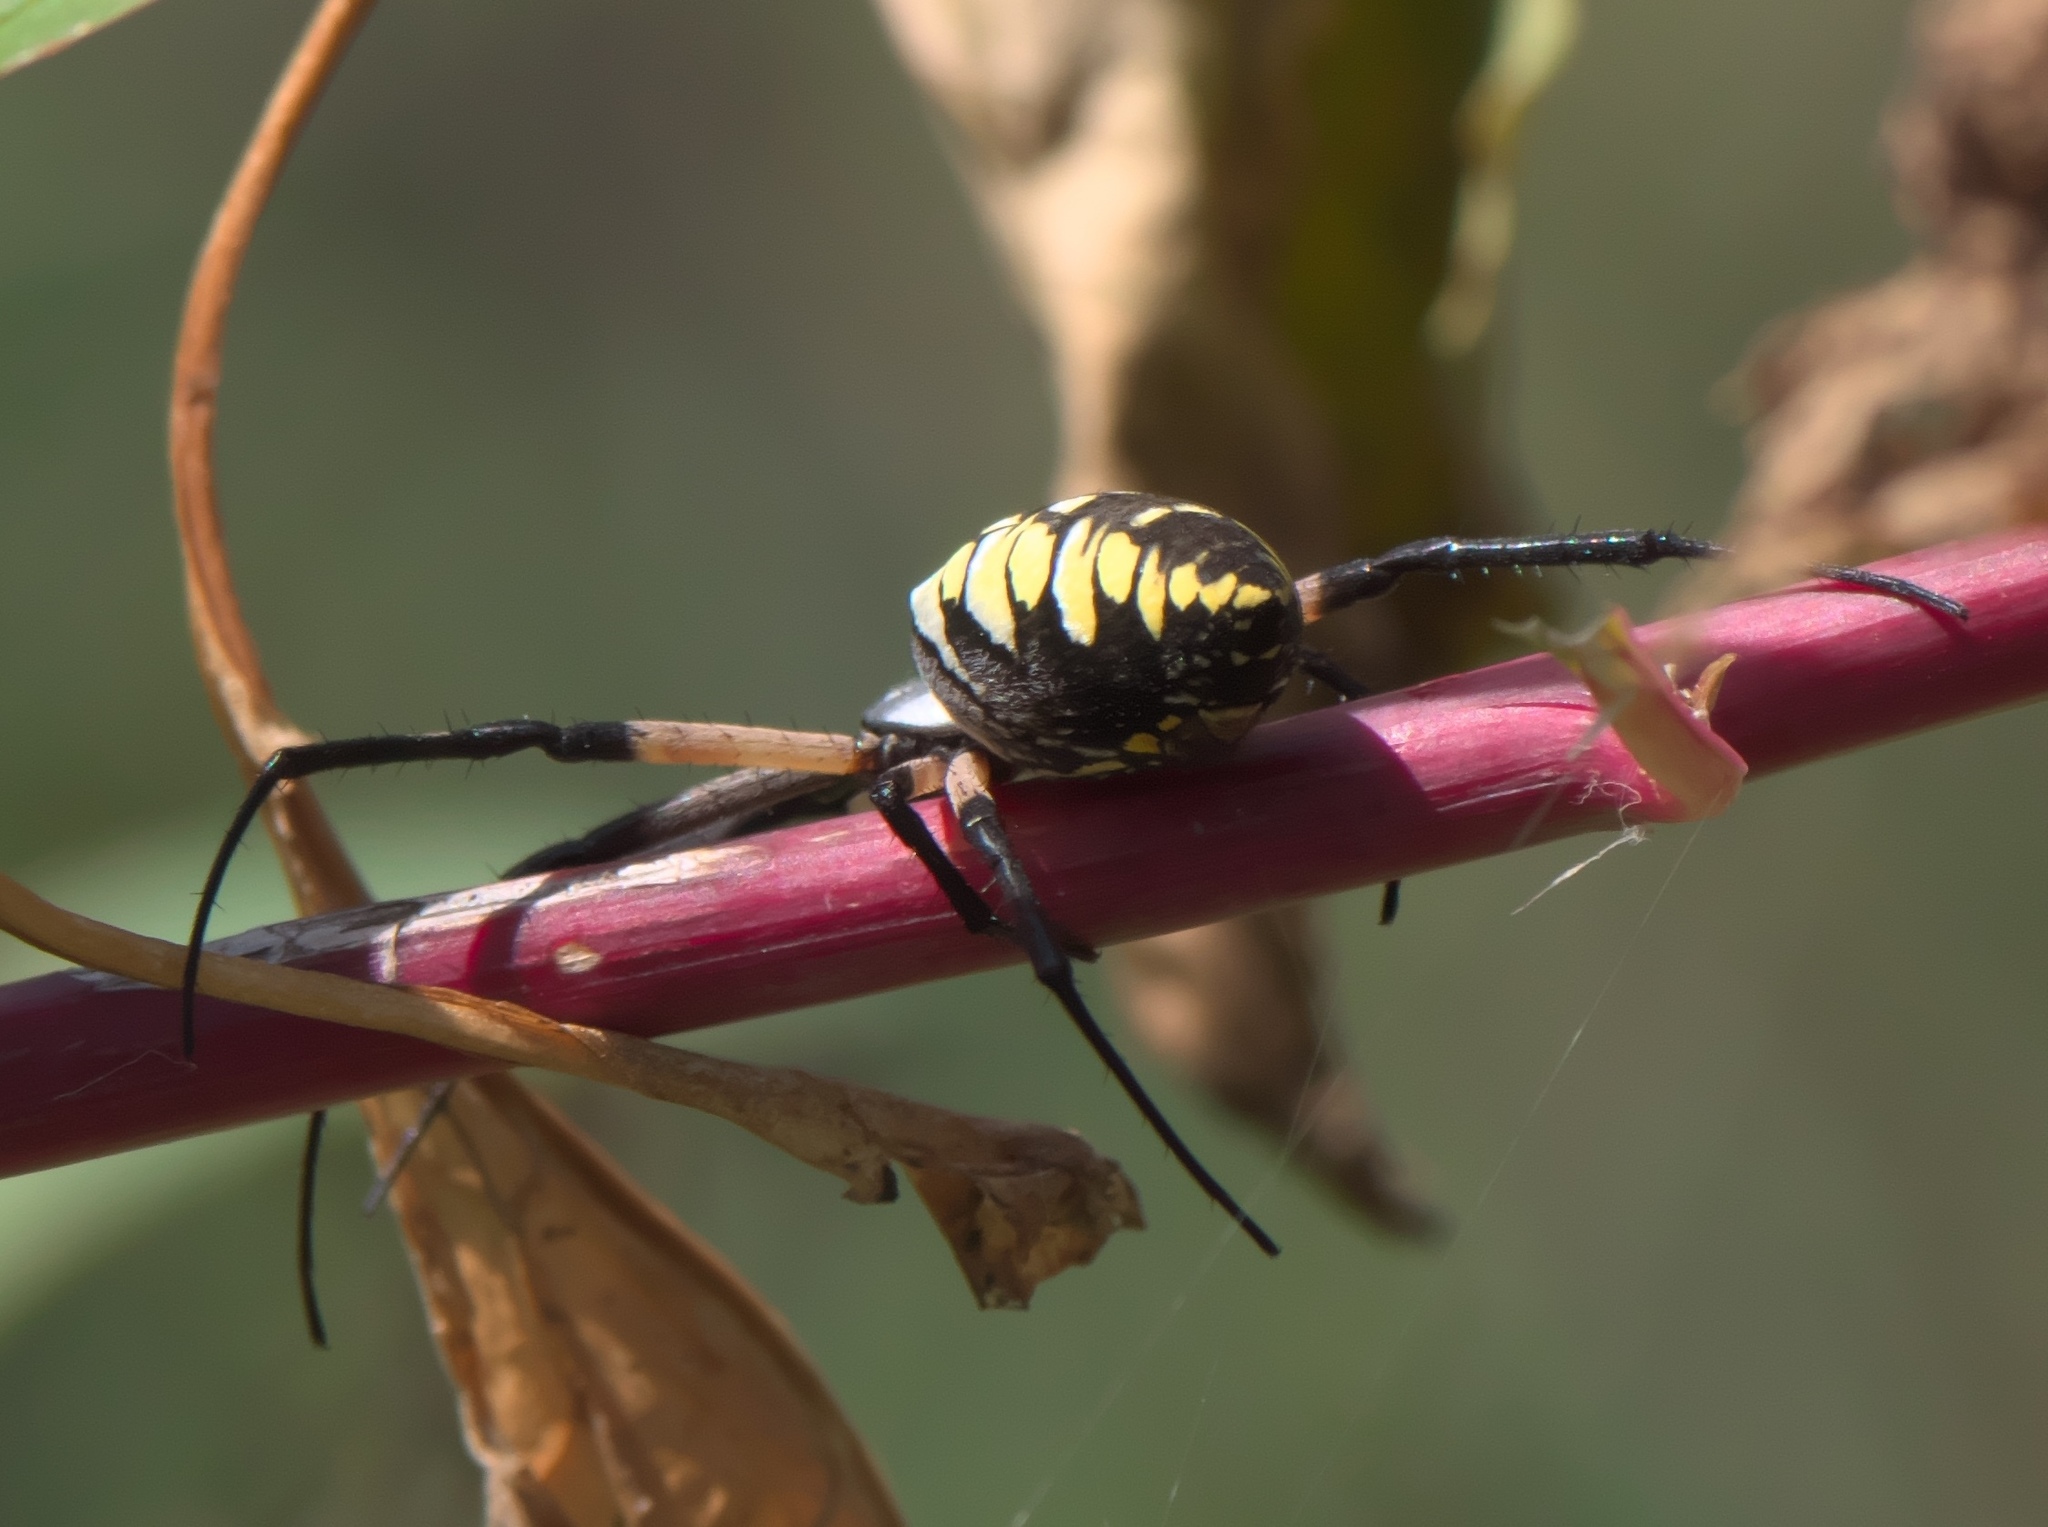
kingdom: Animalia
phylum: Arthropoda
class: Arachnida
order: Araneae
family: Araneidae
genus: Argiope
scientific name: Argiope aurantia
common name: Orb weavers
